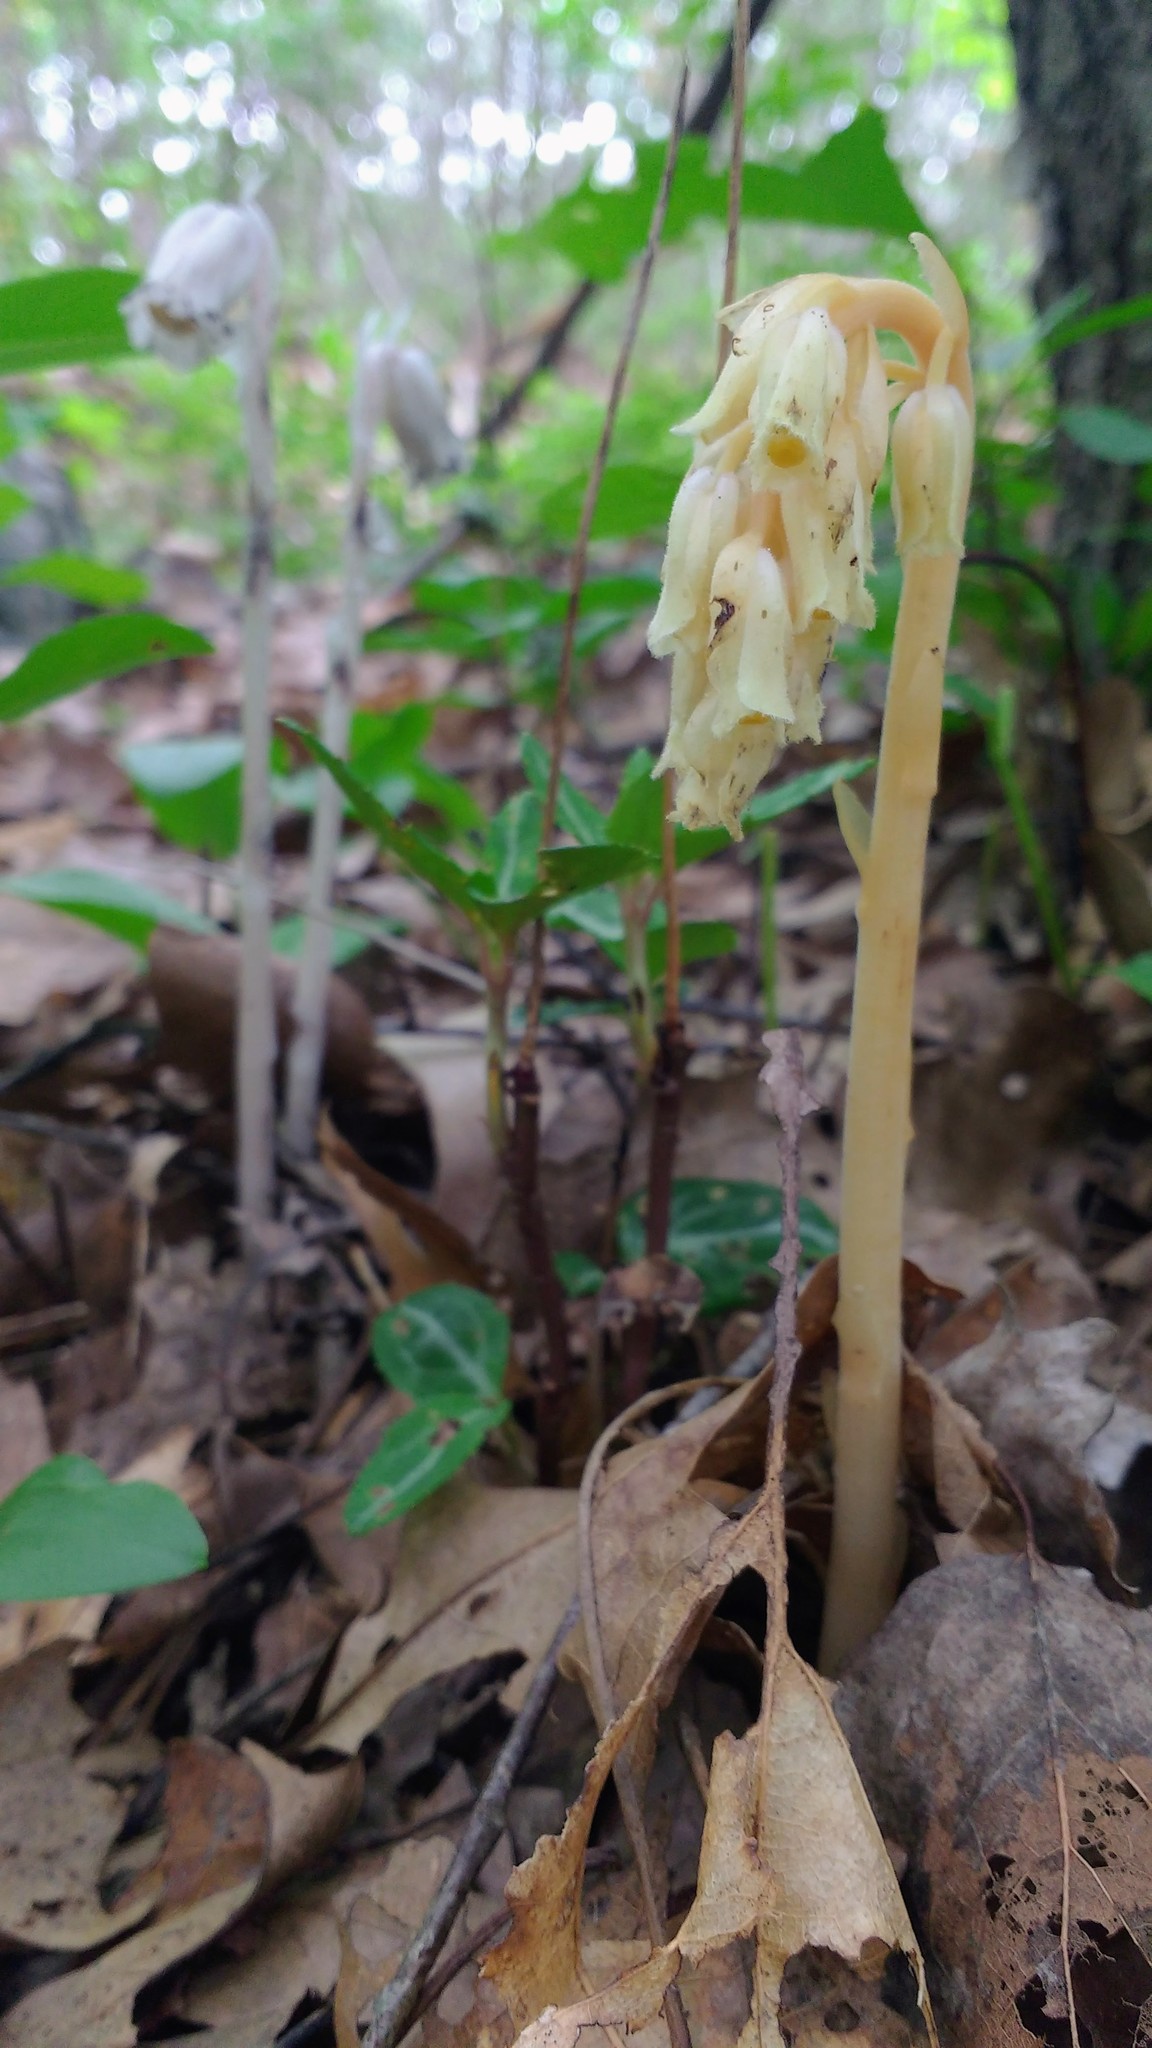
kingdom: Plantae
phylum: Tracheophyta
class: Magnoliopsida
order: Ericales
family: Ericaceae
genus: Hypopitys
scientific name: Hypopitys monotropa
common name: Yellow bird's-nest
